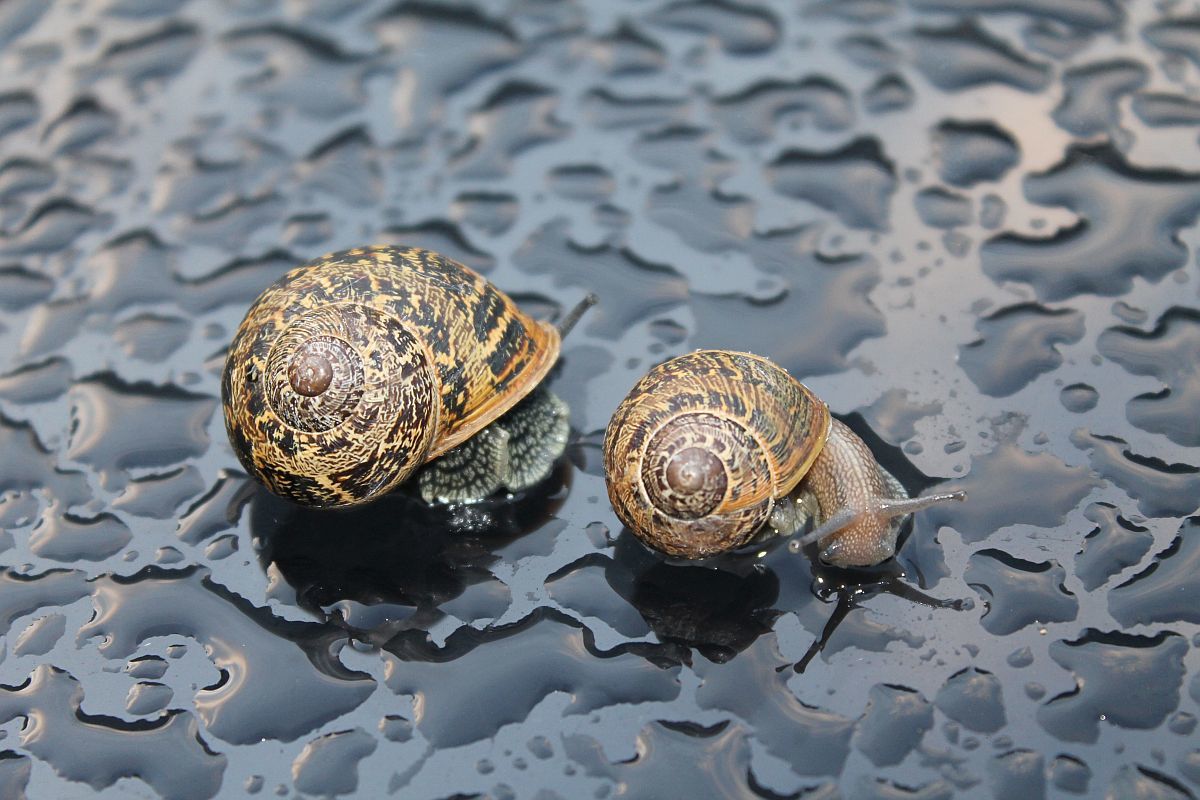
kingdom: Animalia
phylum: Mollusca
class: Gastropoda
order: Stylommatophora
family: Helicidae
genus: Cornu
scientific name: Cornu aspersum
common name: Brown garden snail
